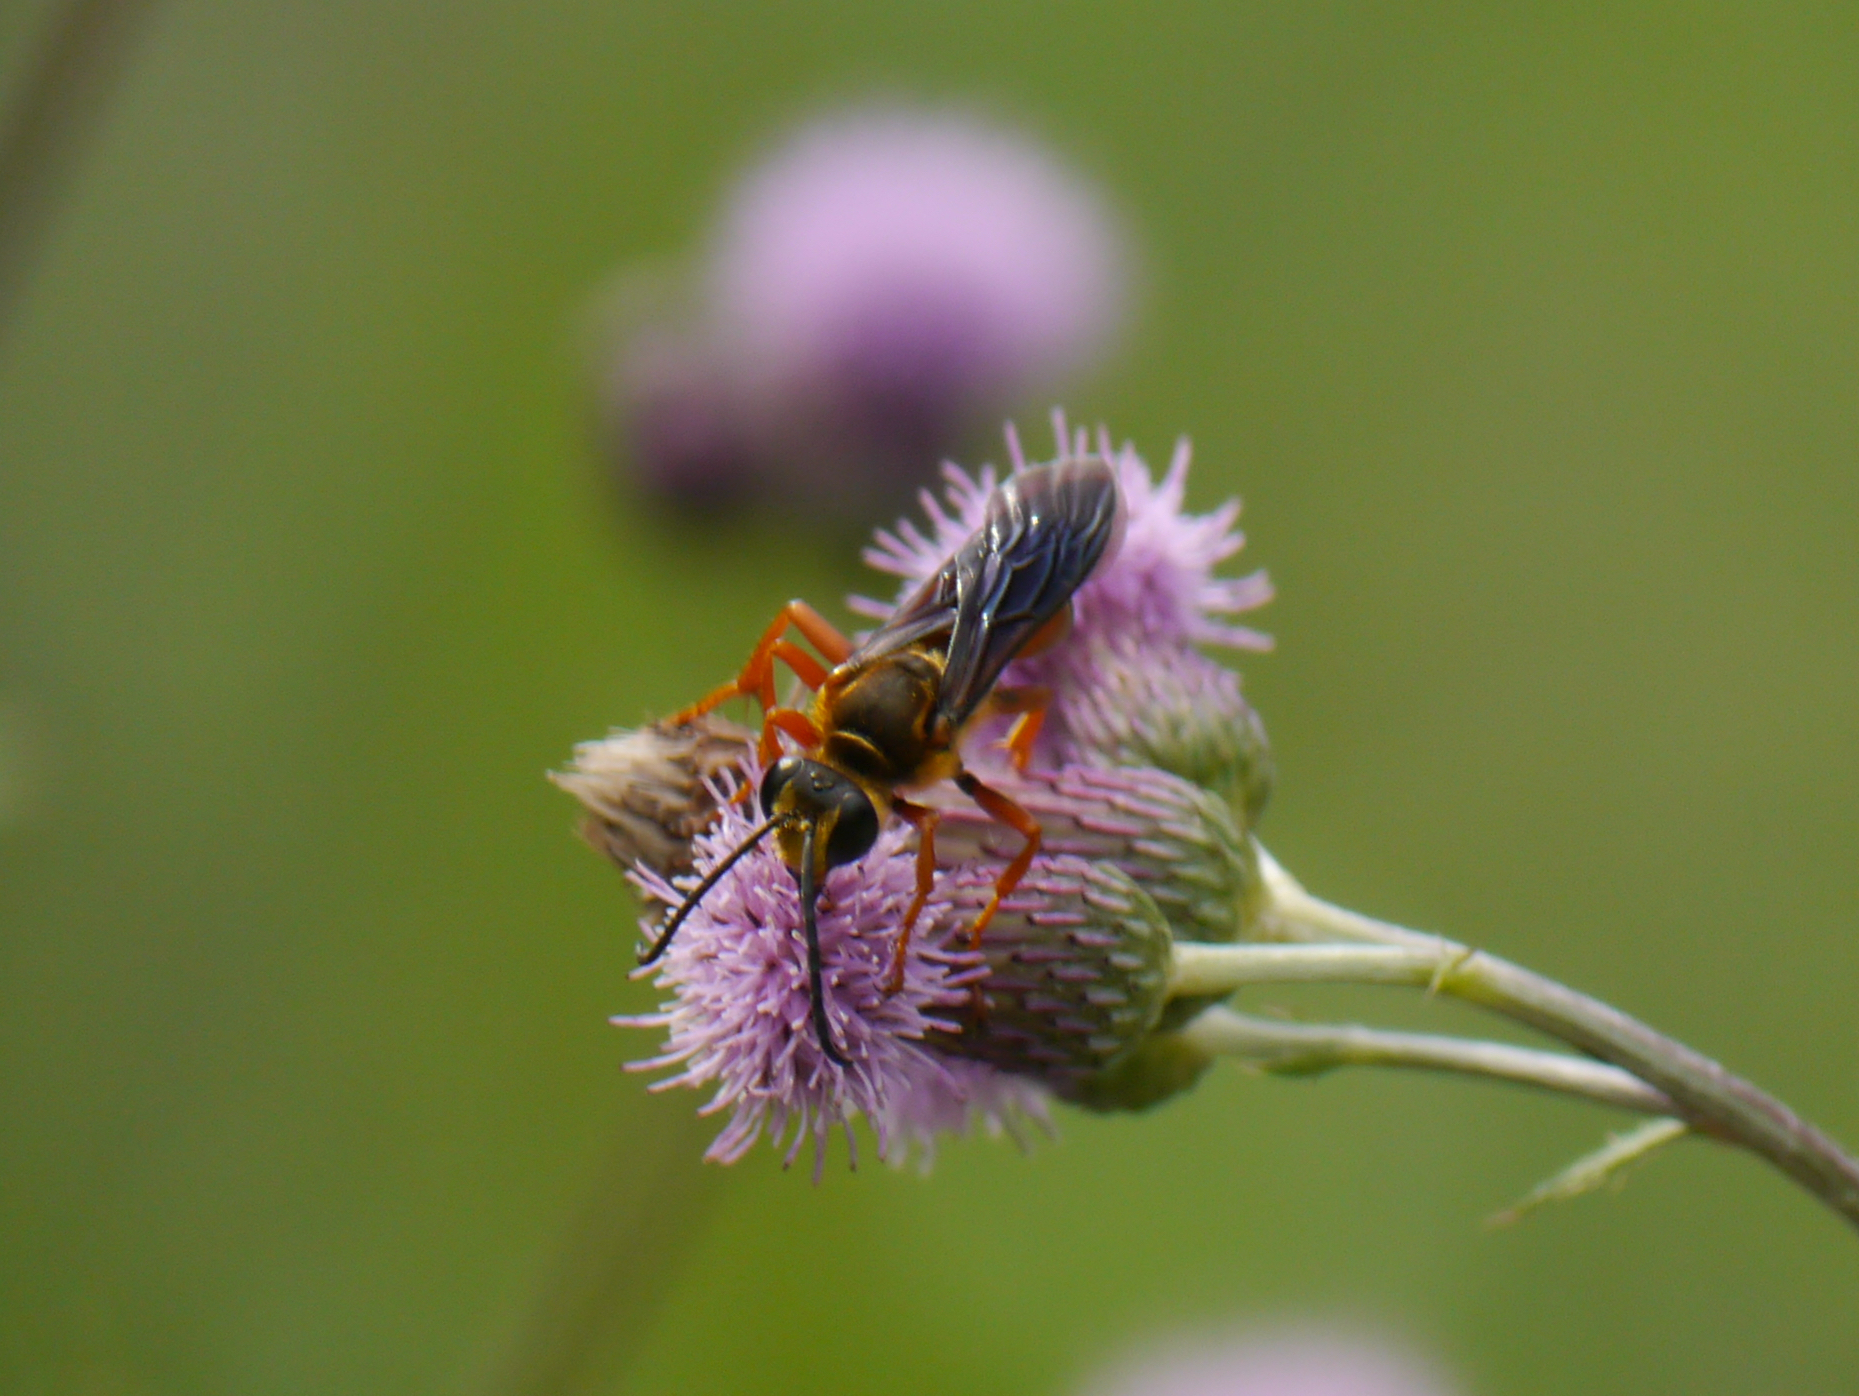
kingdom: Animalia
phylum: Arthropoda
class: Insecta
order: Hymenoptera
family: Sphecidae
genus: Sphex
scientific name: Sphex ichneumoneus
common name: Great golden digger wasp
